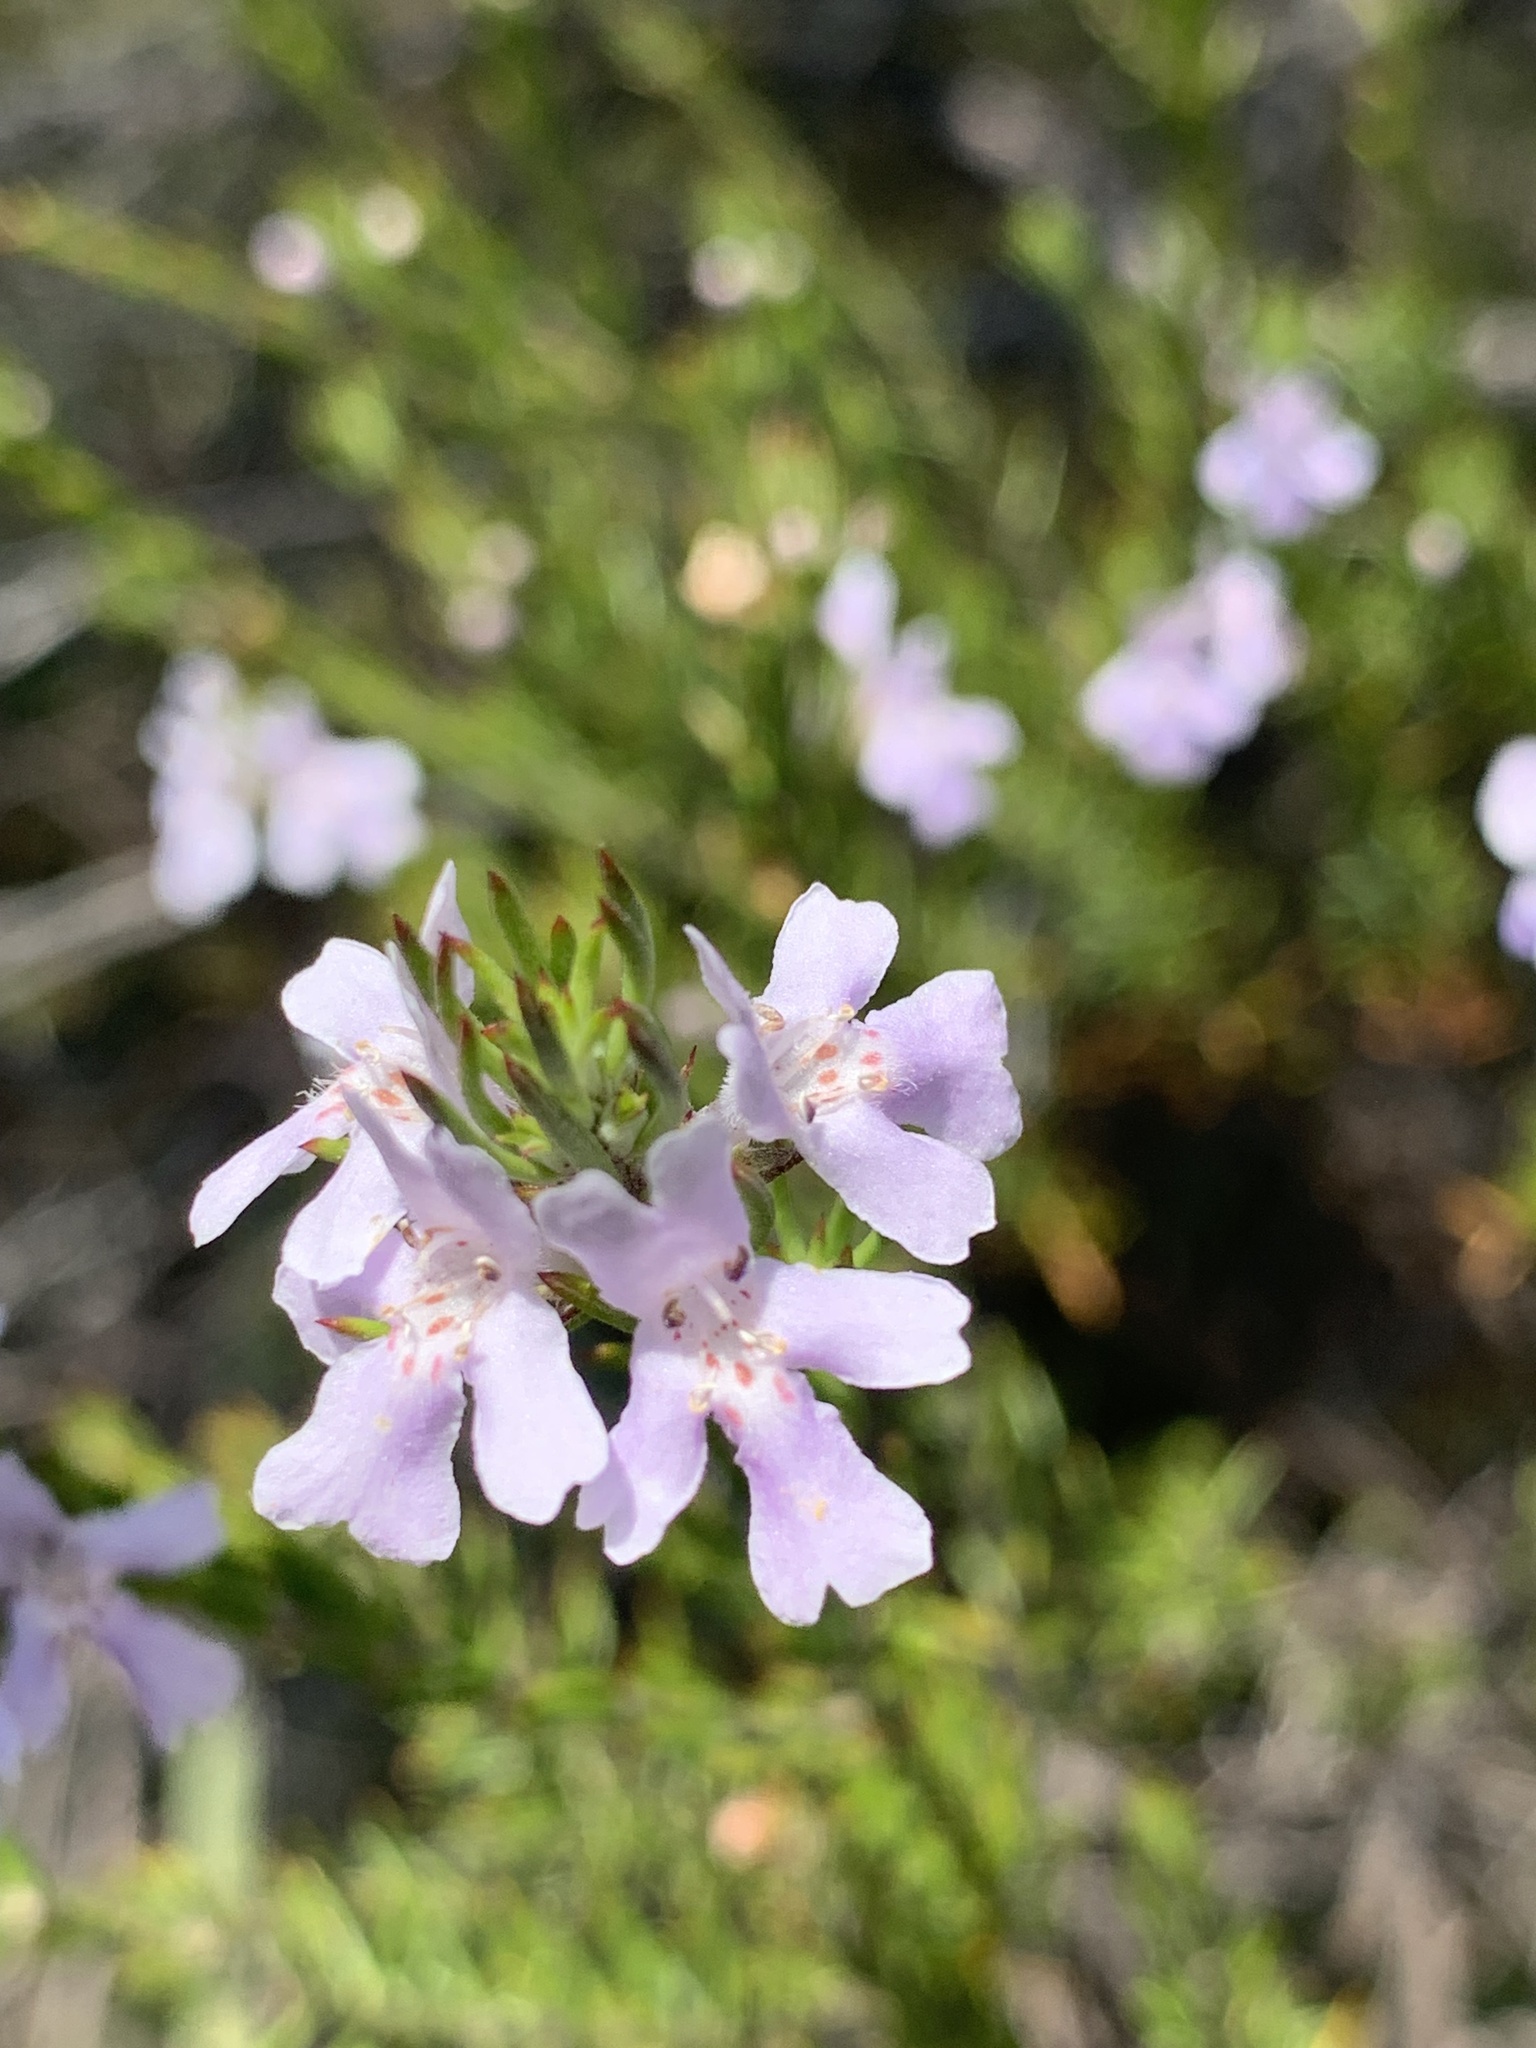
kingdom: Plantae
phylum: Tracheophyta
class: Magnoliopsida
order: Lamiales
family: Lamiaceae
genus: Westringia
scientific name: Westringia eremicola
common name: Slender western-rosemary
